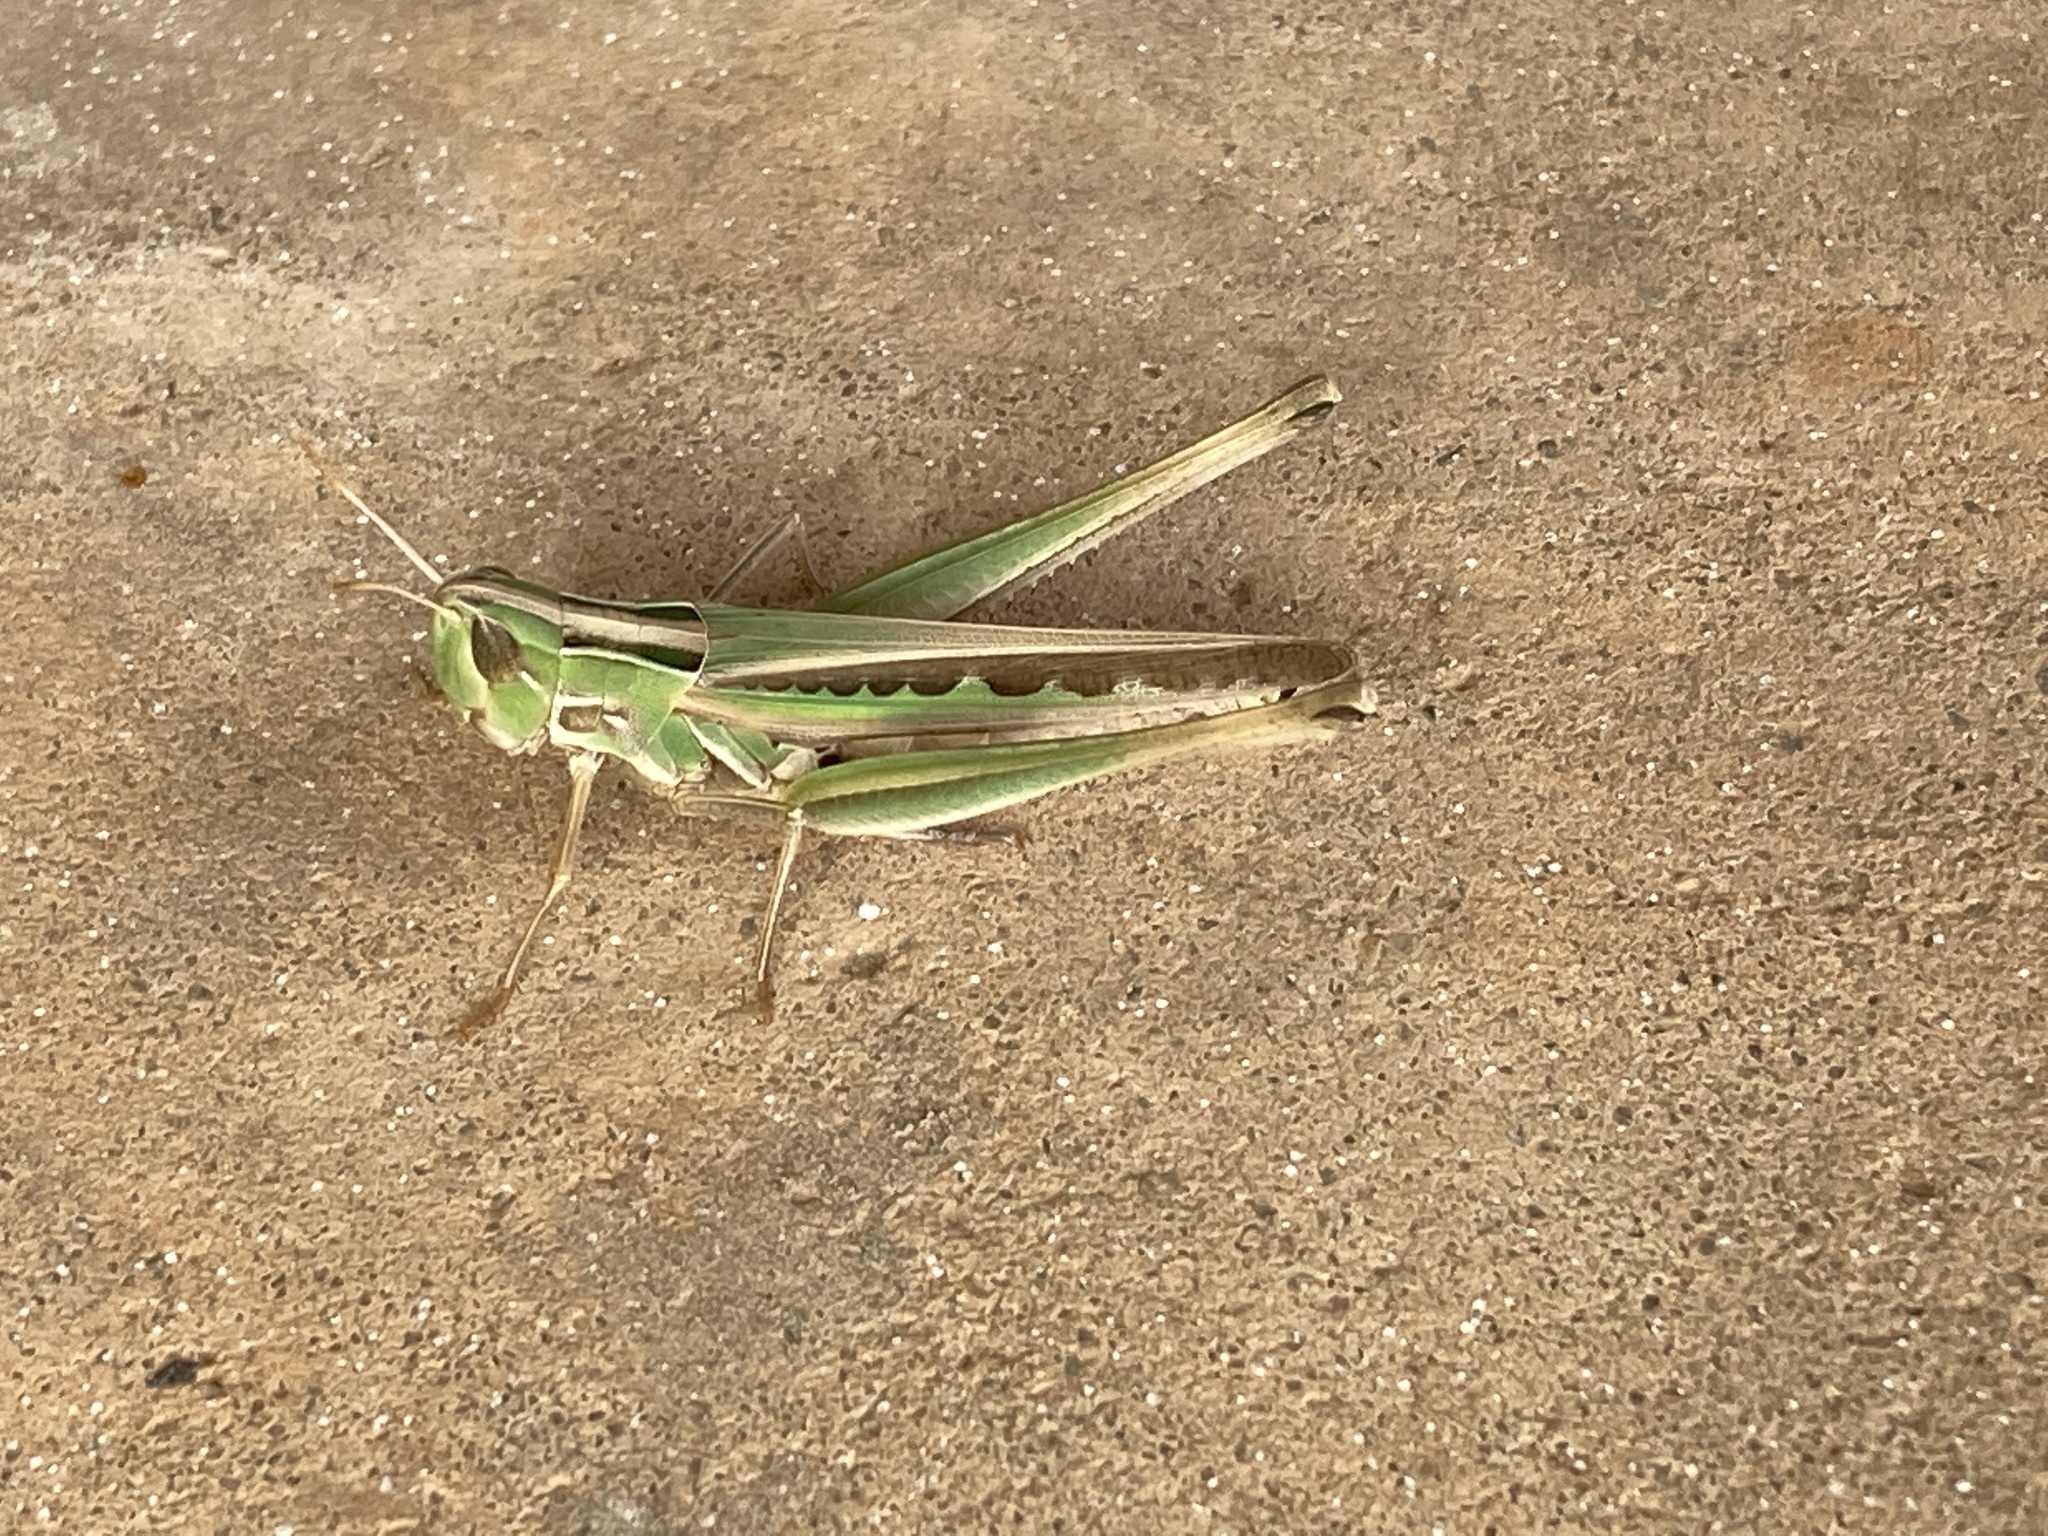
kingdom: Animalia
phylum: Arthropoda
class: Insecta
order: Orthoptera
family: Acrididae
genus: Syrbula
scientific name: Syrbula admirabilis
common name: Handsome grasshopper
